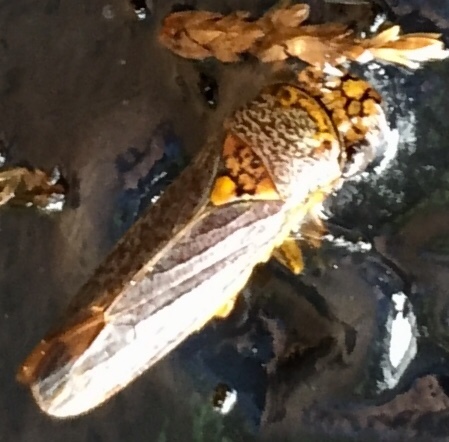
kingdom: Animalia
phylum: Arthropoda
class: Insecta
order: Hemiptera
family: Cicadellidae
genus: Oncometopia
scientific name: Oncometopia orbona
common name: Broad-headed sharpshooter
